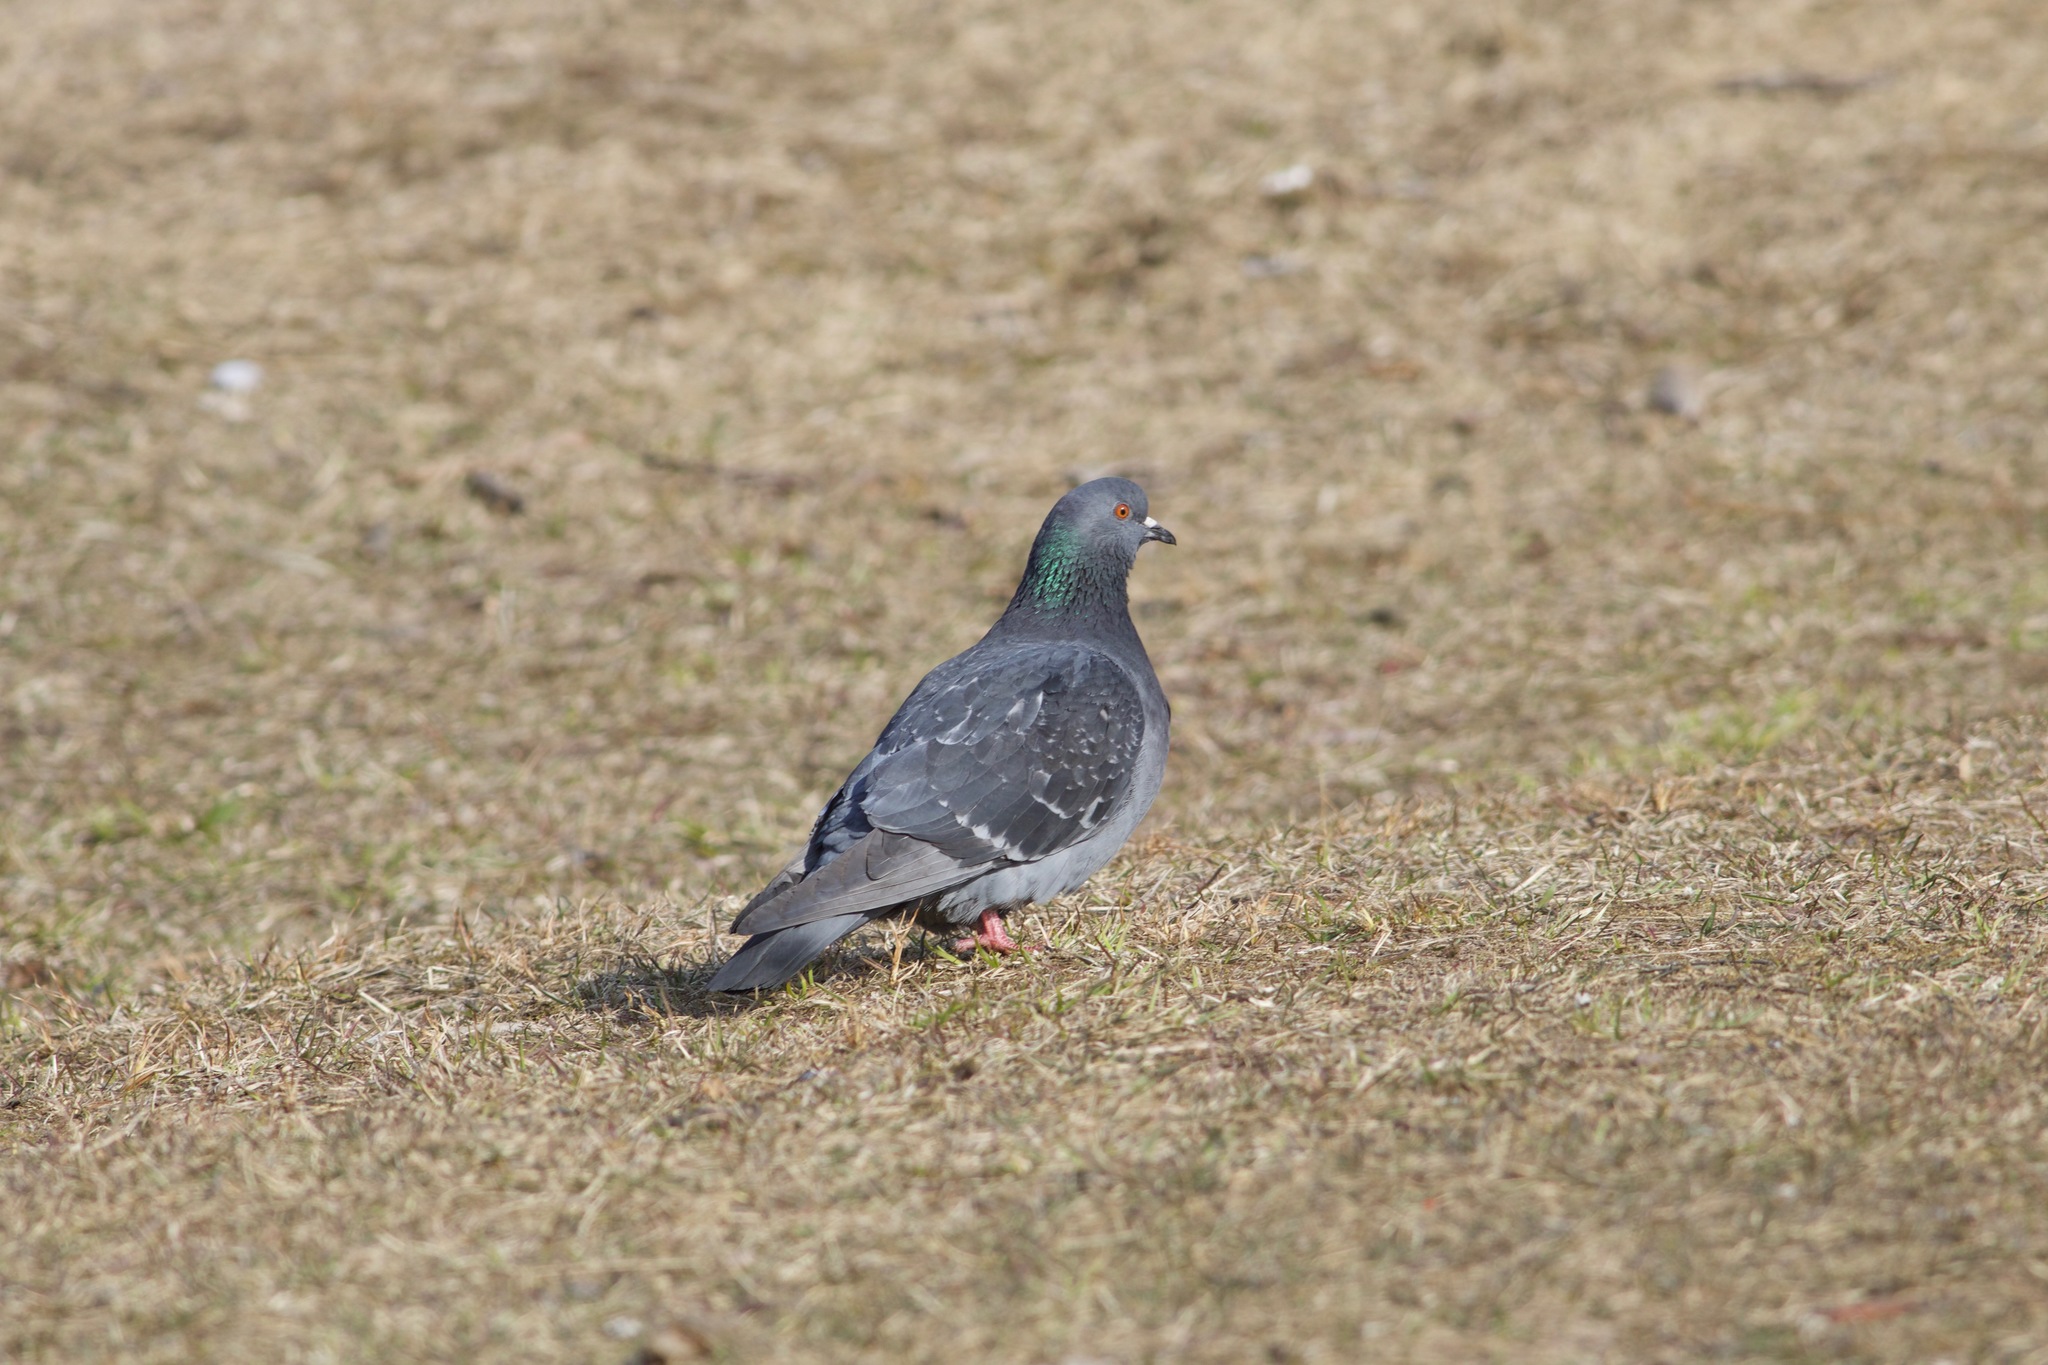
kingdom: Animalia
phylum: Chordata
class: Aves
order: Columbiformes
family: Columbidae
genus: Columba
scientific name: Columba livia
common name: Rock pigeon
